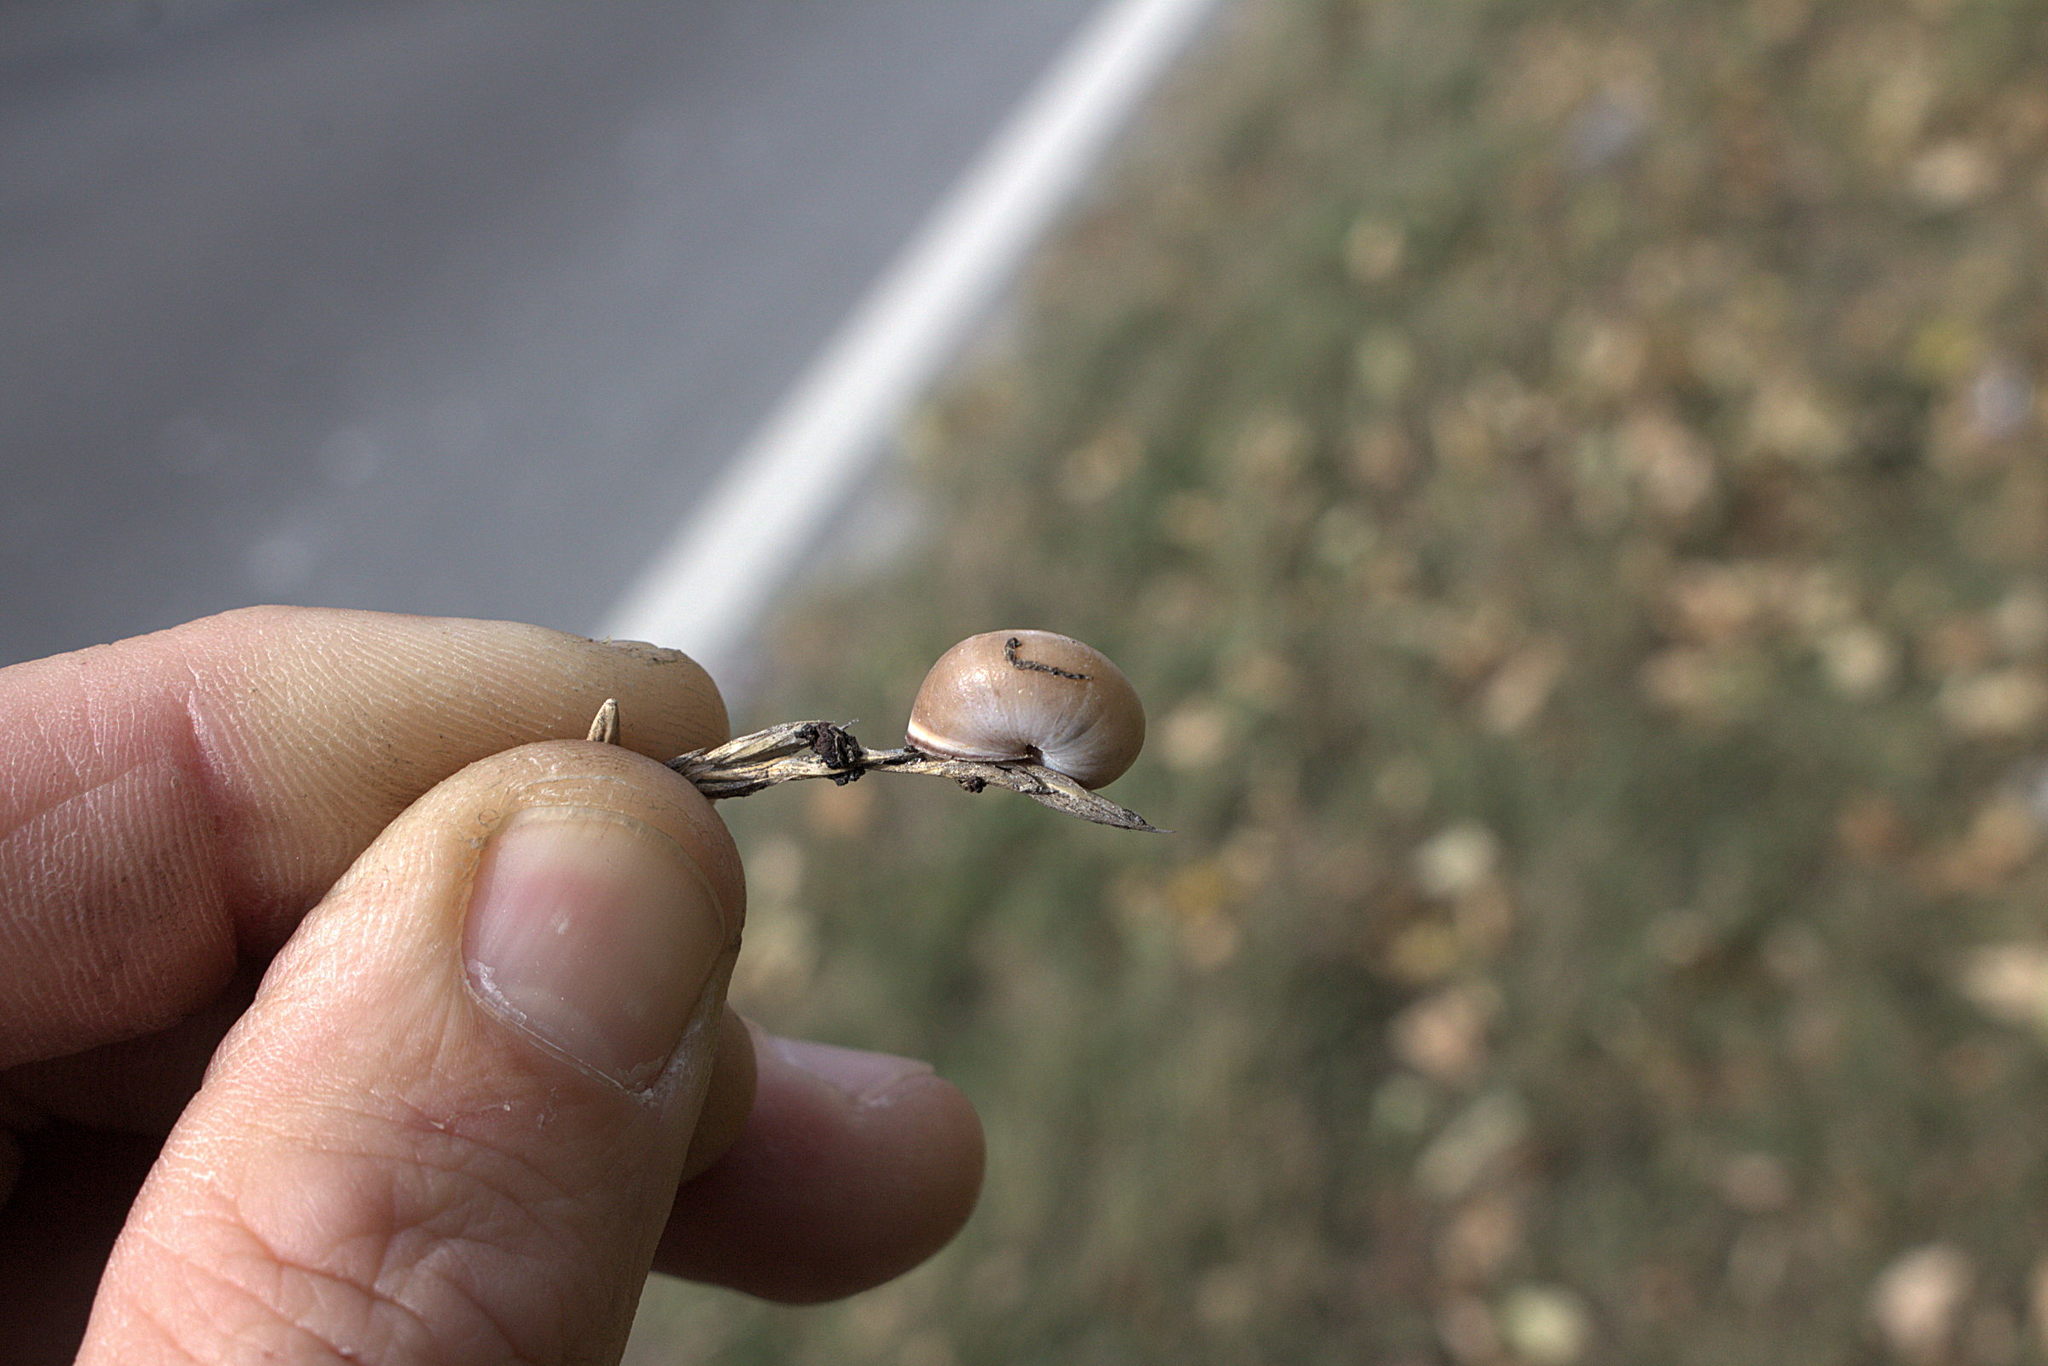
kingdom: Animalia
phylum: Mollusca
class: Gastropoda
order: Stylommatophora
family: Hygromiidae
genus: Monacha
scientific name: Monacha cartusiana
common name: Carthusian snail
